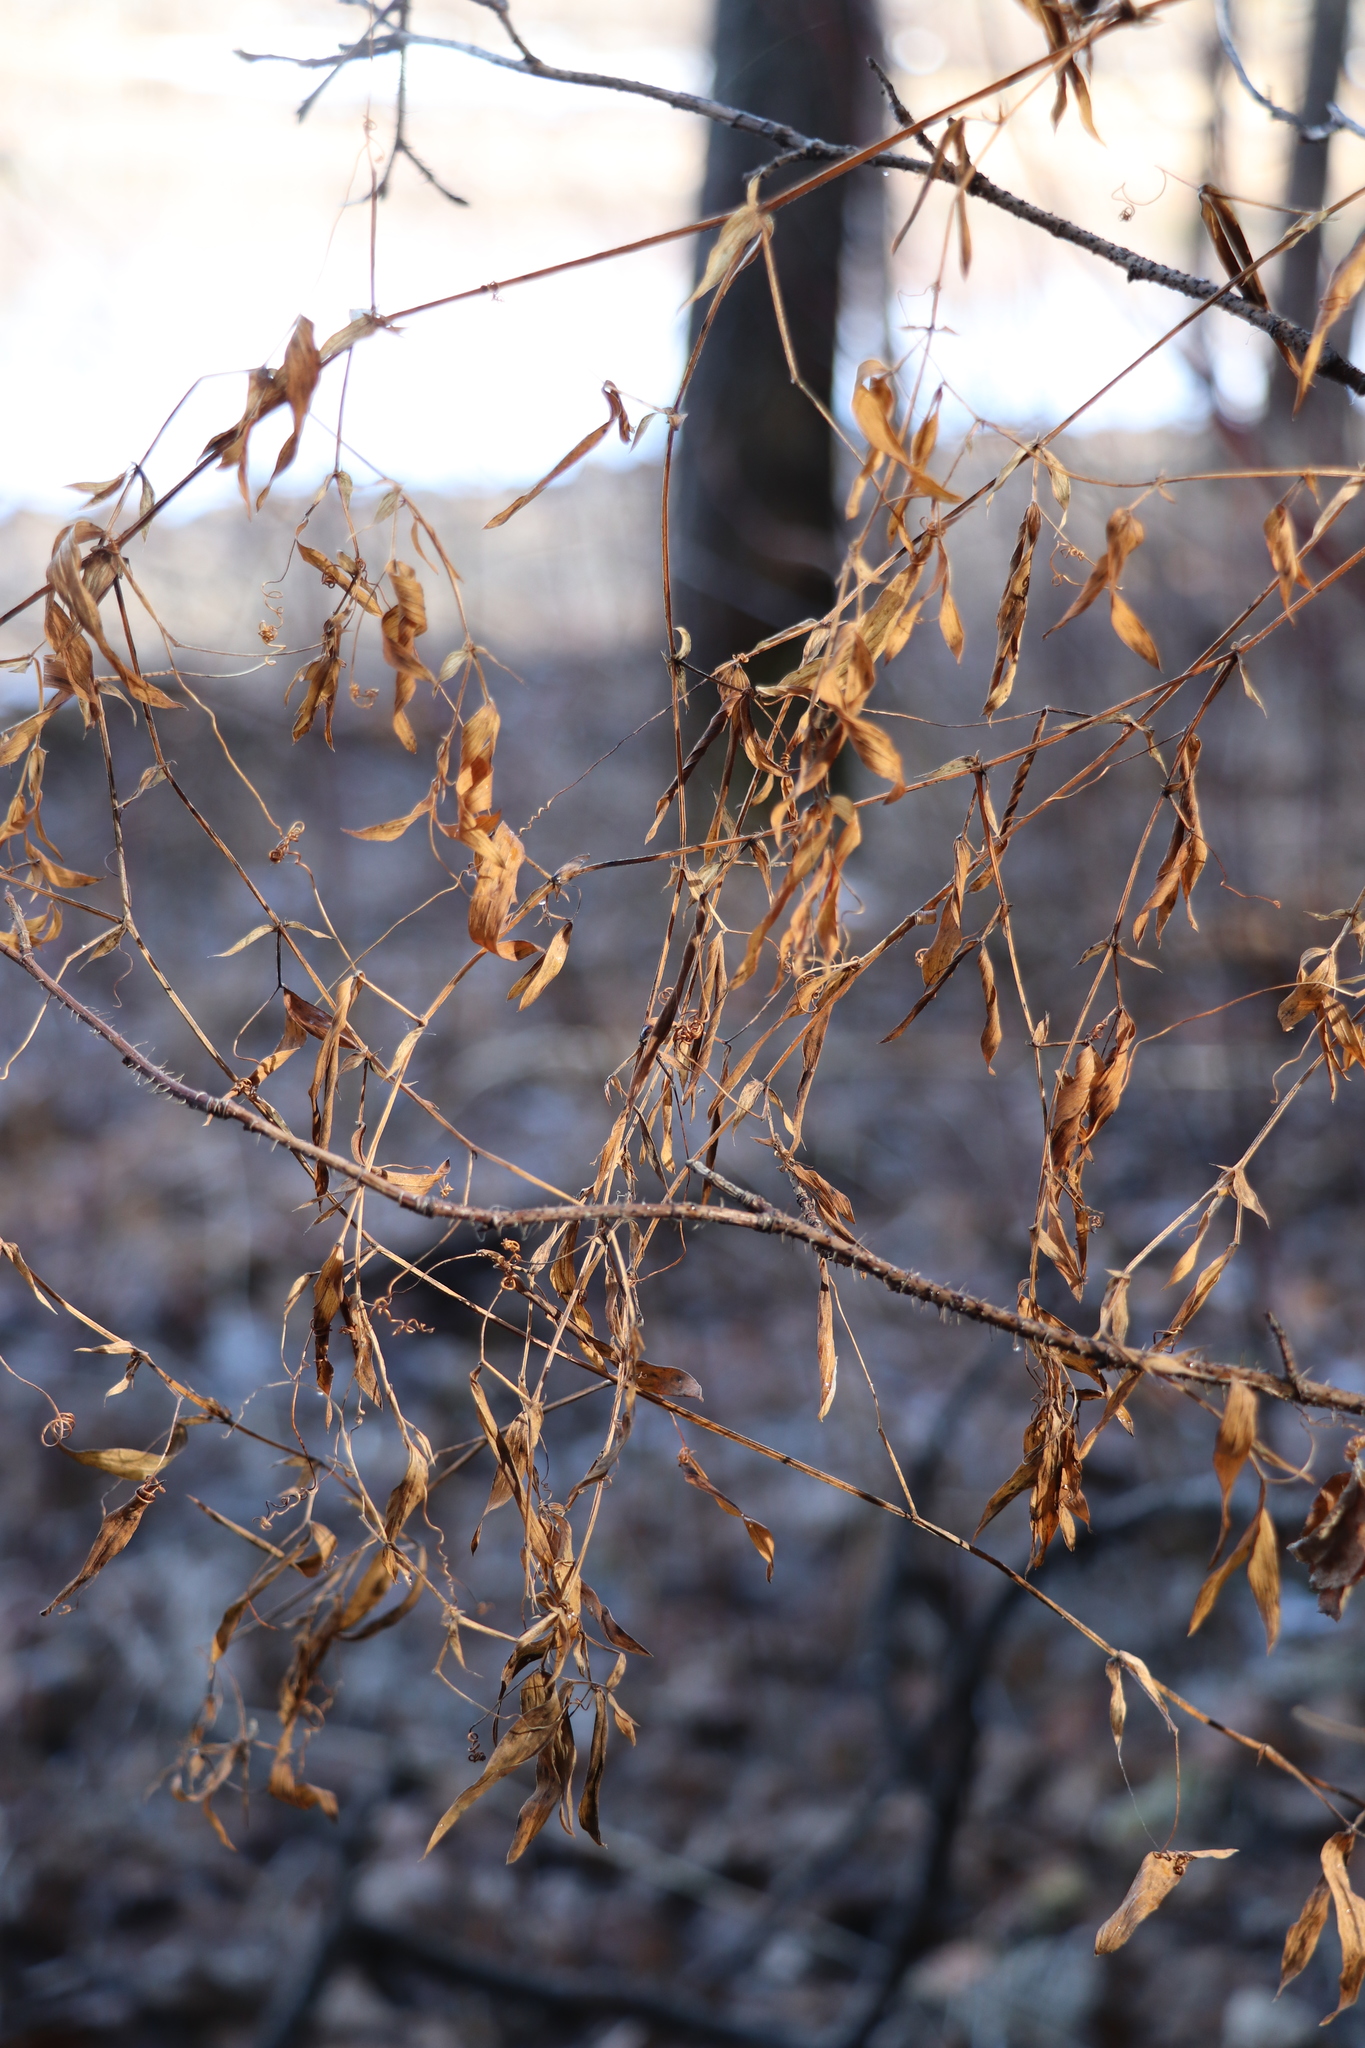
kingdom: Plantae
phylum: Tracheophyta
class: Magnoliopsida
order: Fabales
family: Fabaceae
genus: Lathyrus
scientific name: Lathyrus pratensis
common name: Meadow vetchling
